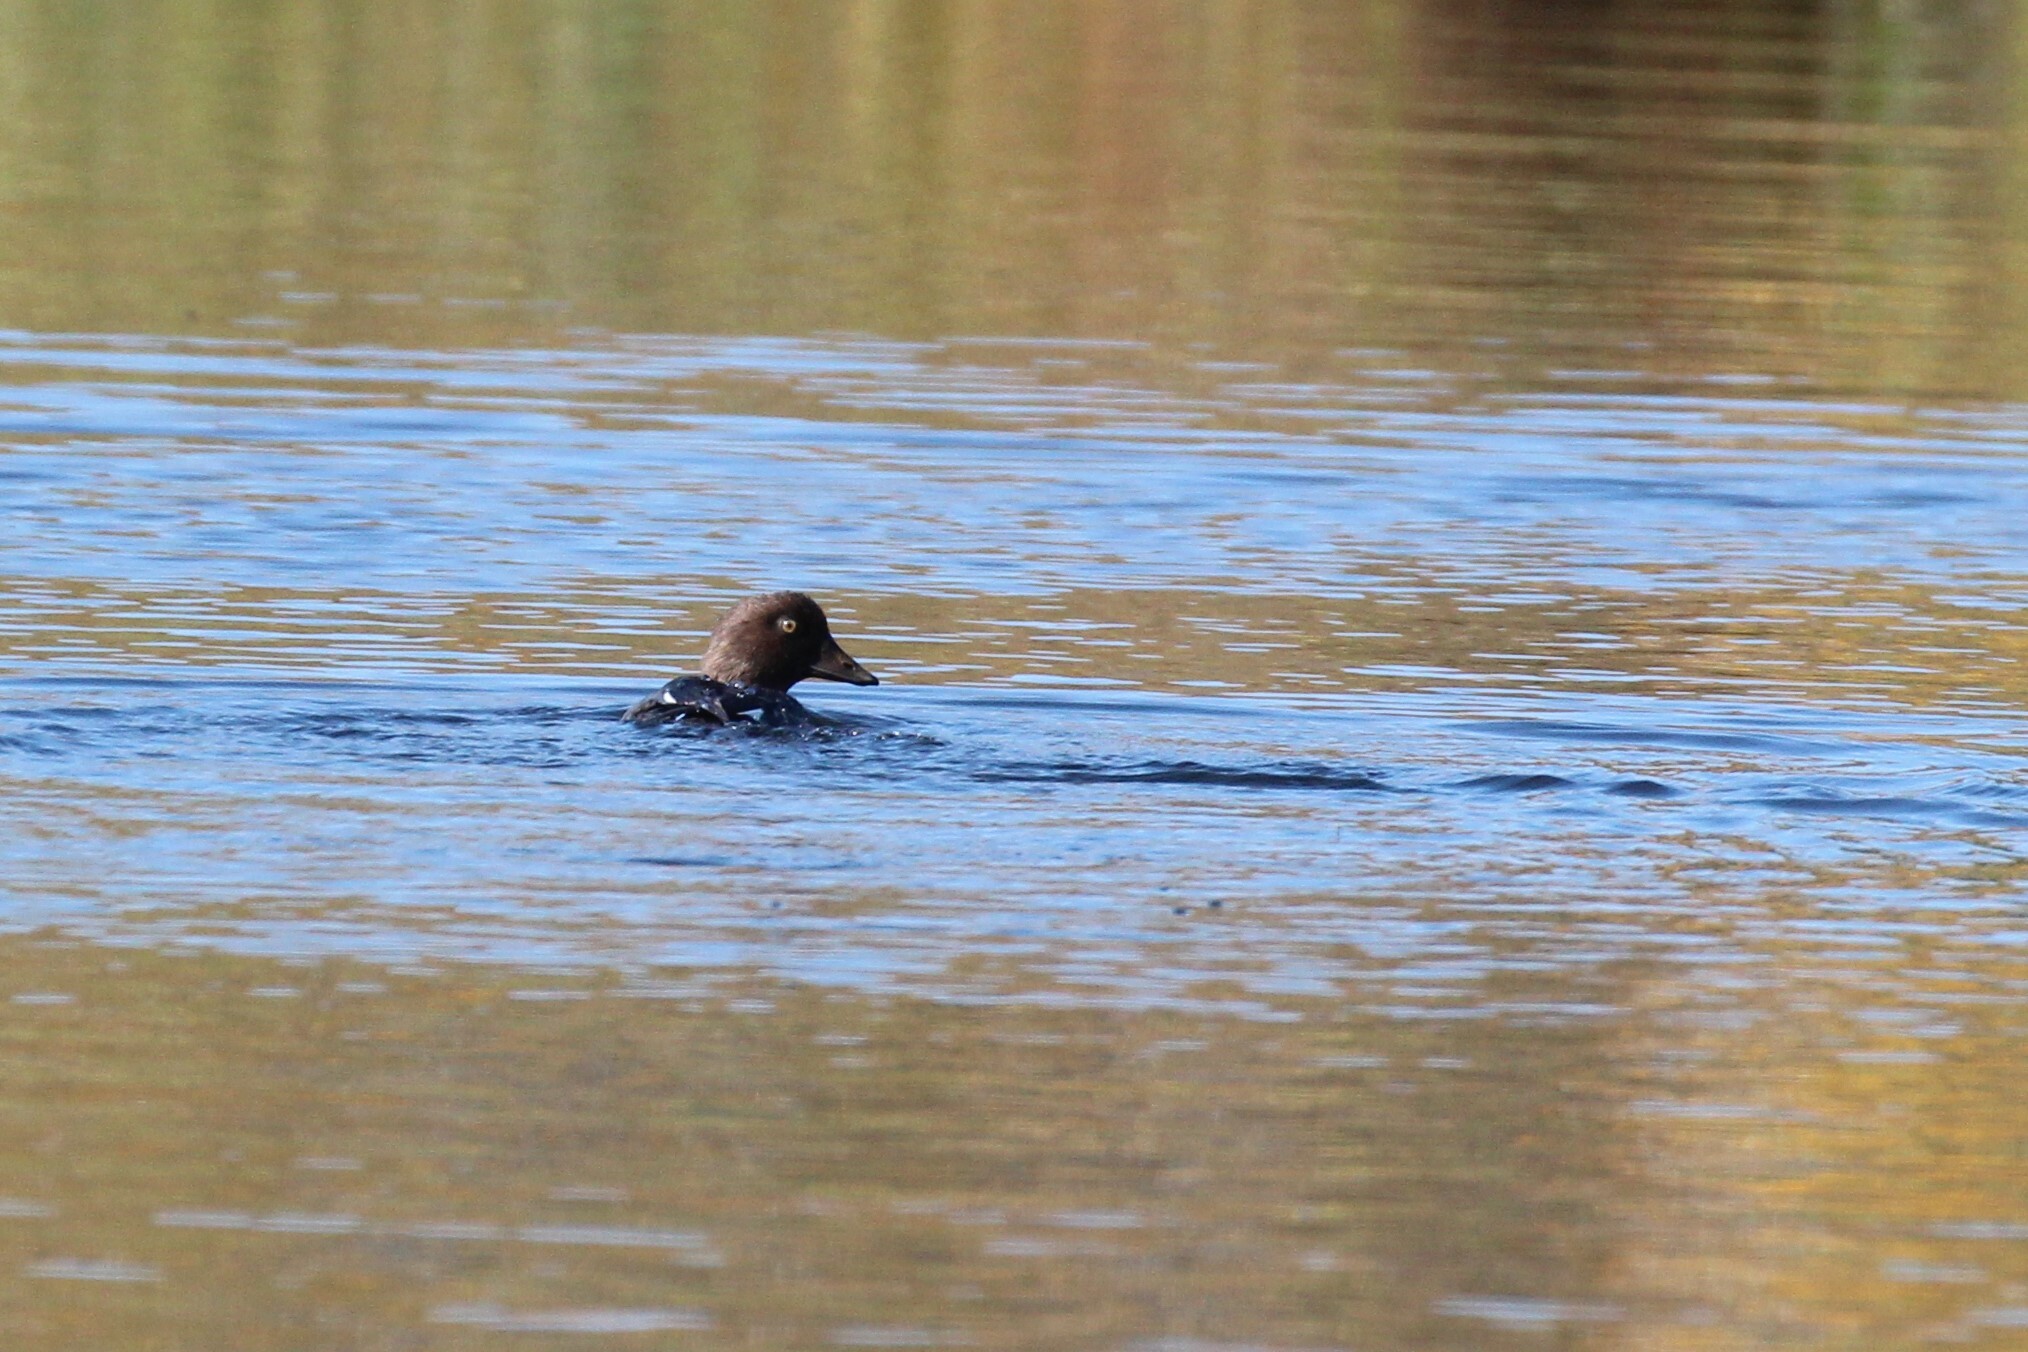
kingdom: Animalia
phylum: Chordata
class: Aves
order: Anseriformes
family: Anatidae
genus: Bucephala
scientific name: Bucephala clangula
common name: Common goldeneye
